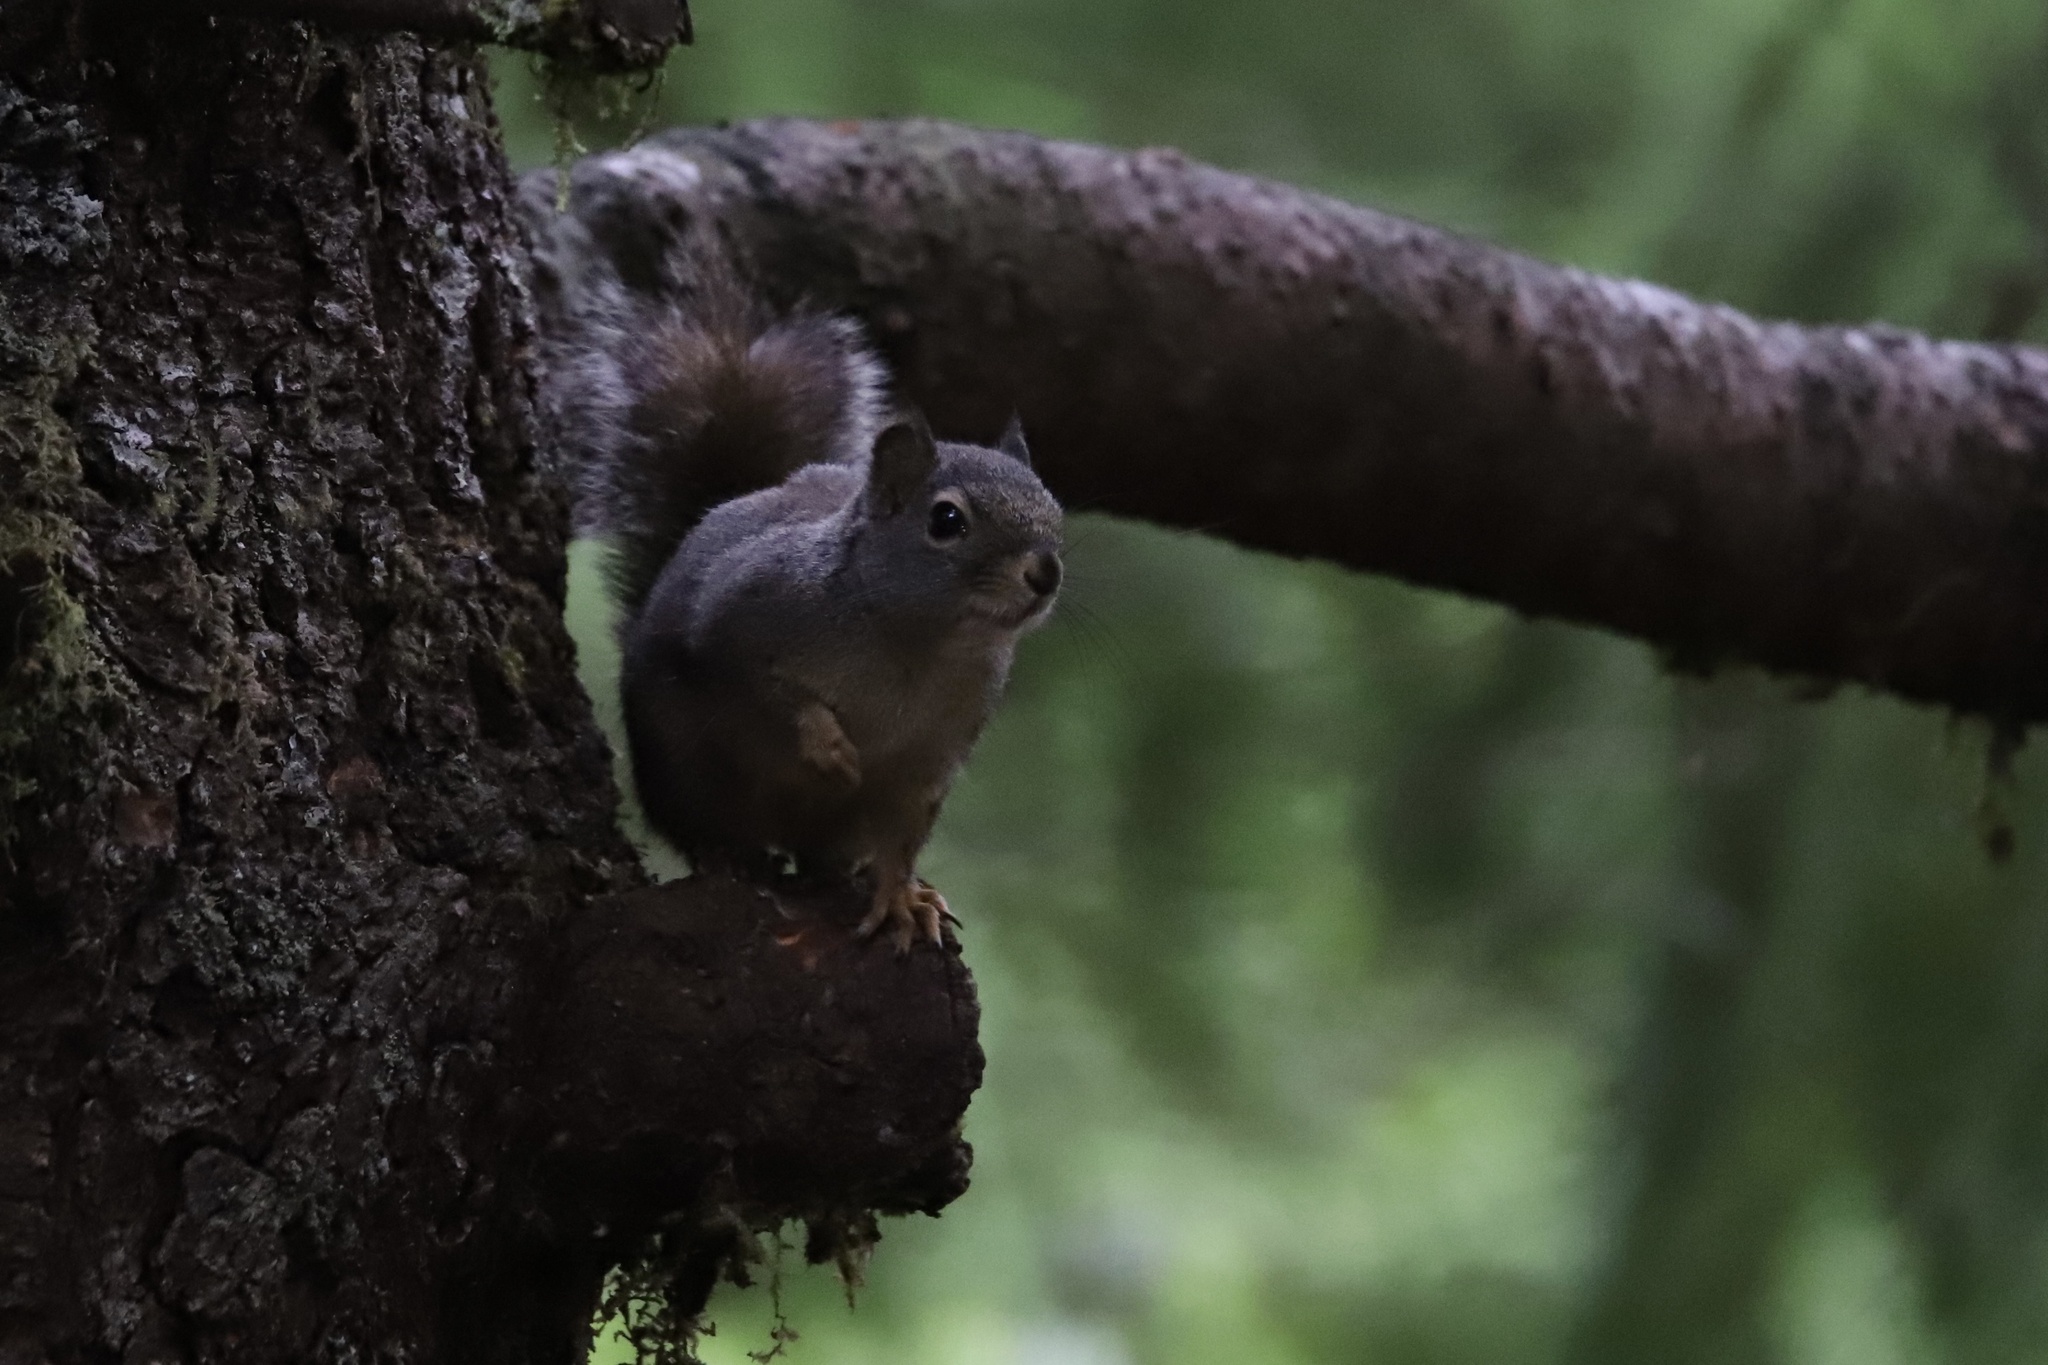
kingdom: Animalia
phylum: Chordata
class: Mammalia
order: Rodentia
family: Sciuridae
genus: Tamiasciurus
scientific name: Tamiasciurus douglasii
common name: Douglas's squirrel
